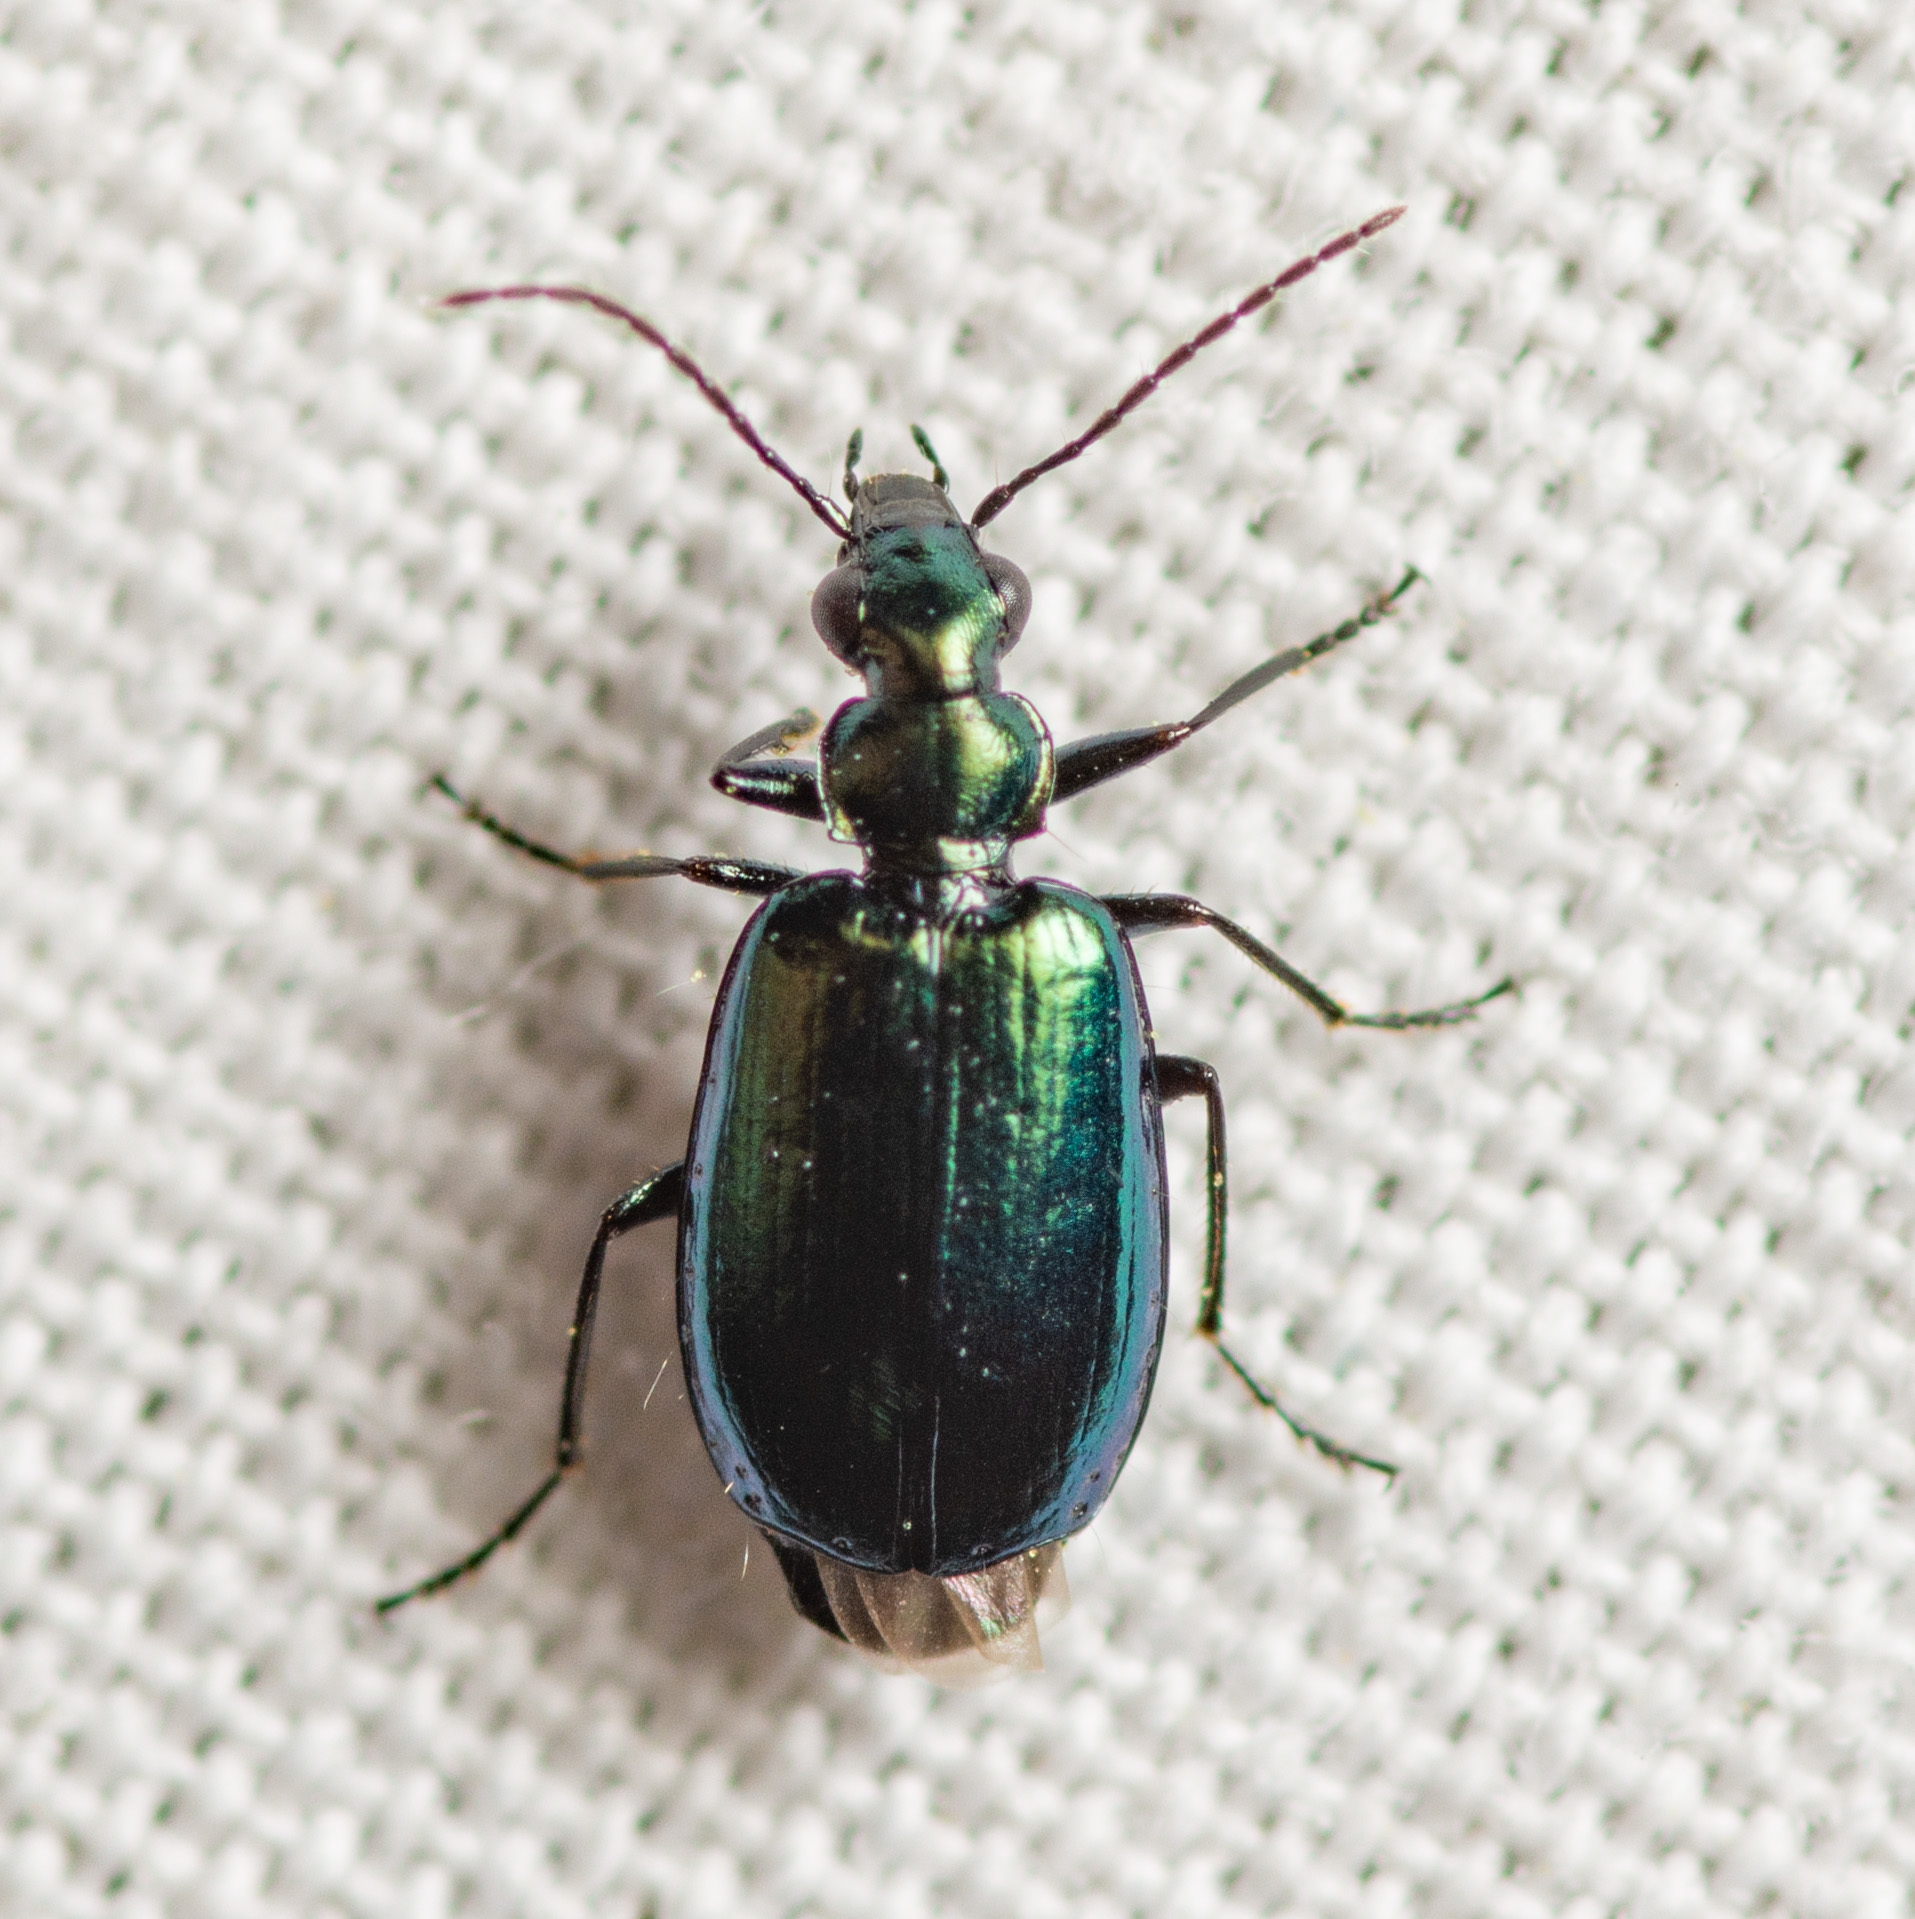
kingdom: Animalia
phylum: Arthropoda
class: Insecta
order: Coleoptera
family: Carabidae
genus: Lebia
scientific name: Lebia viridis
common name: Flower lebia beetle
